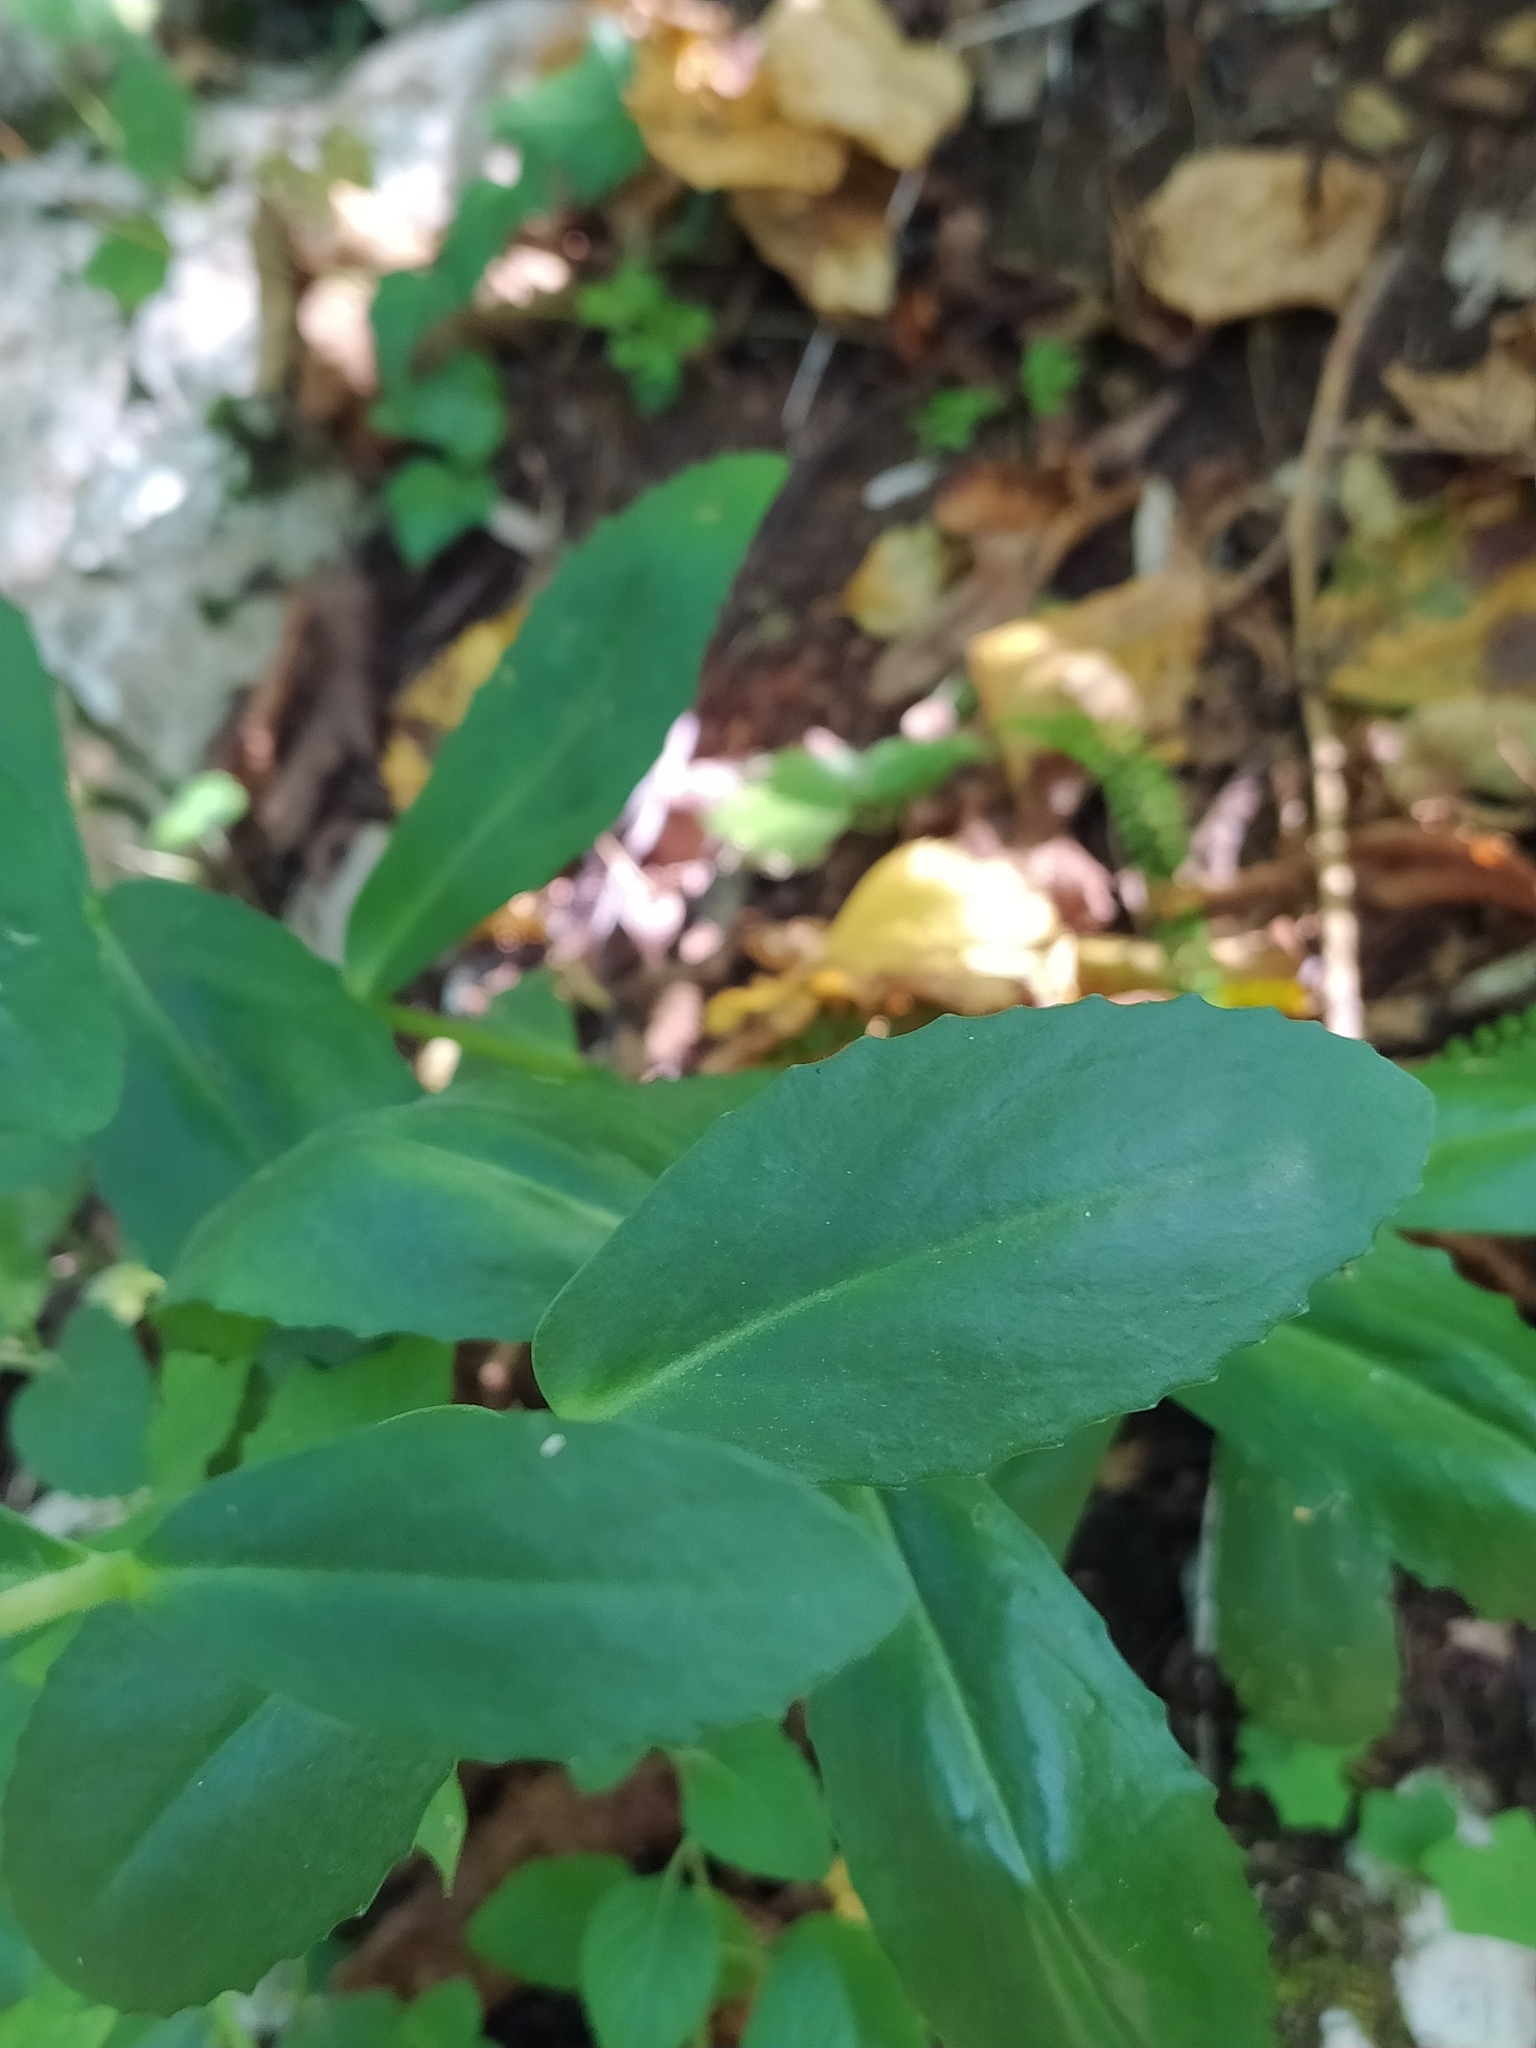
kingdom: Plantae
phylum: Tracheophyta
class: Magnoliopsida
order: Saxifragales
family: Crassulaceae
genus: Hylotelephium
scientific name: Hylotelephium maximum
